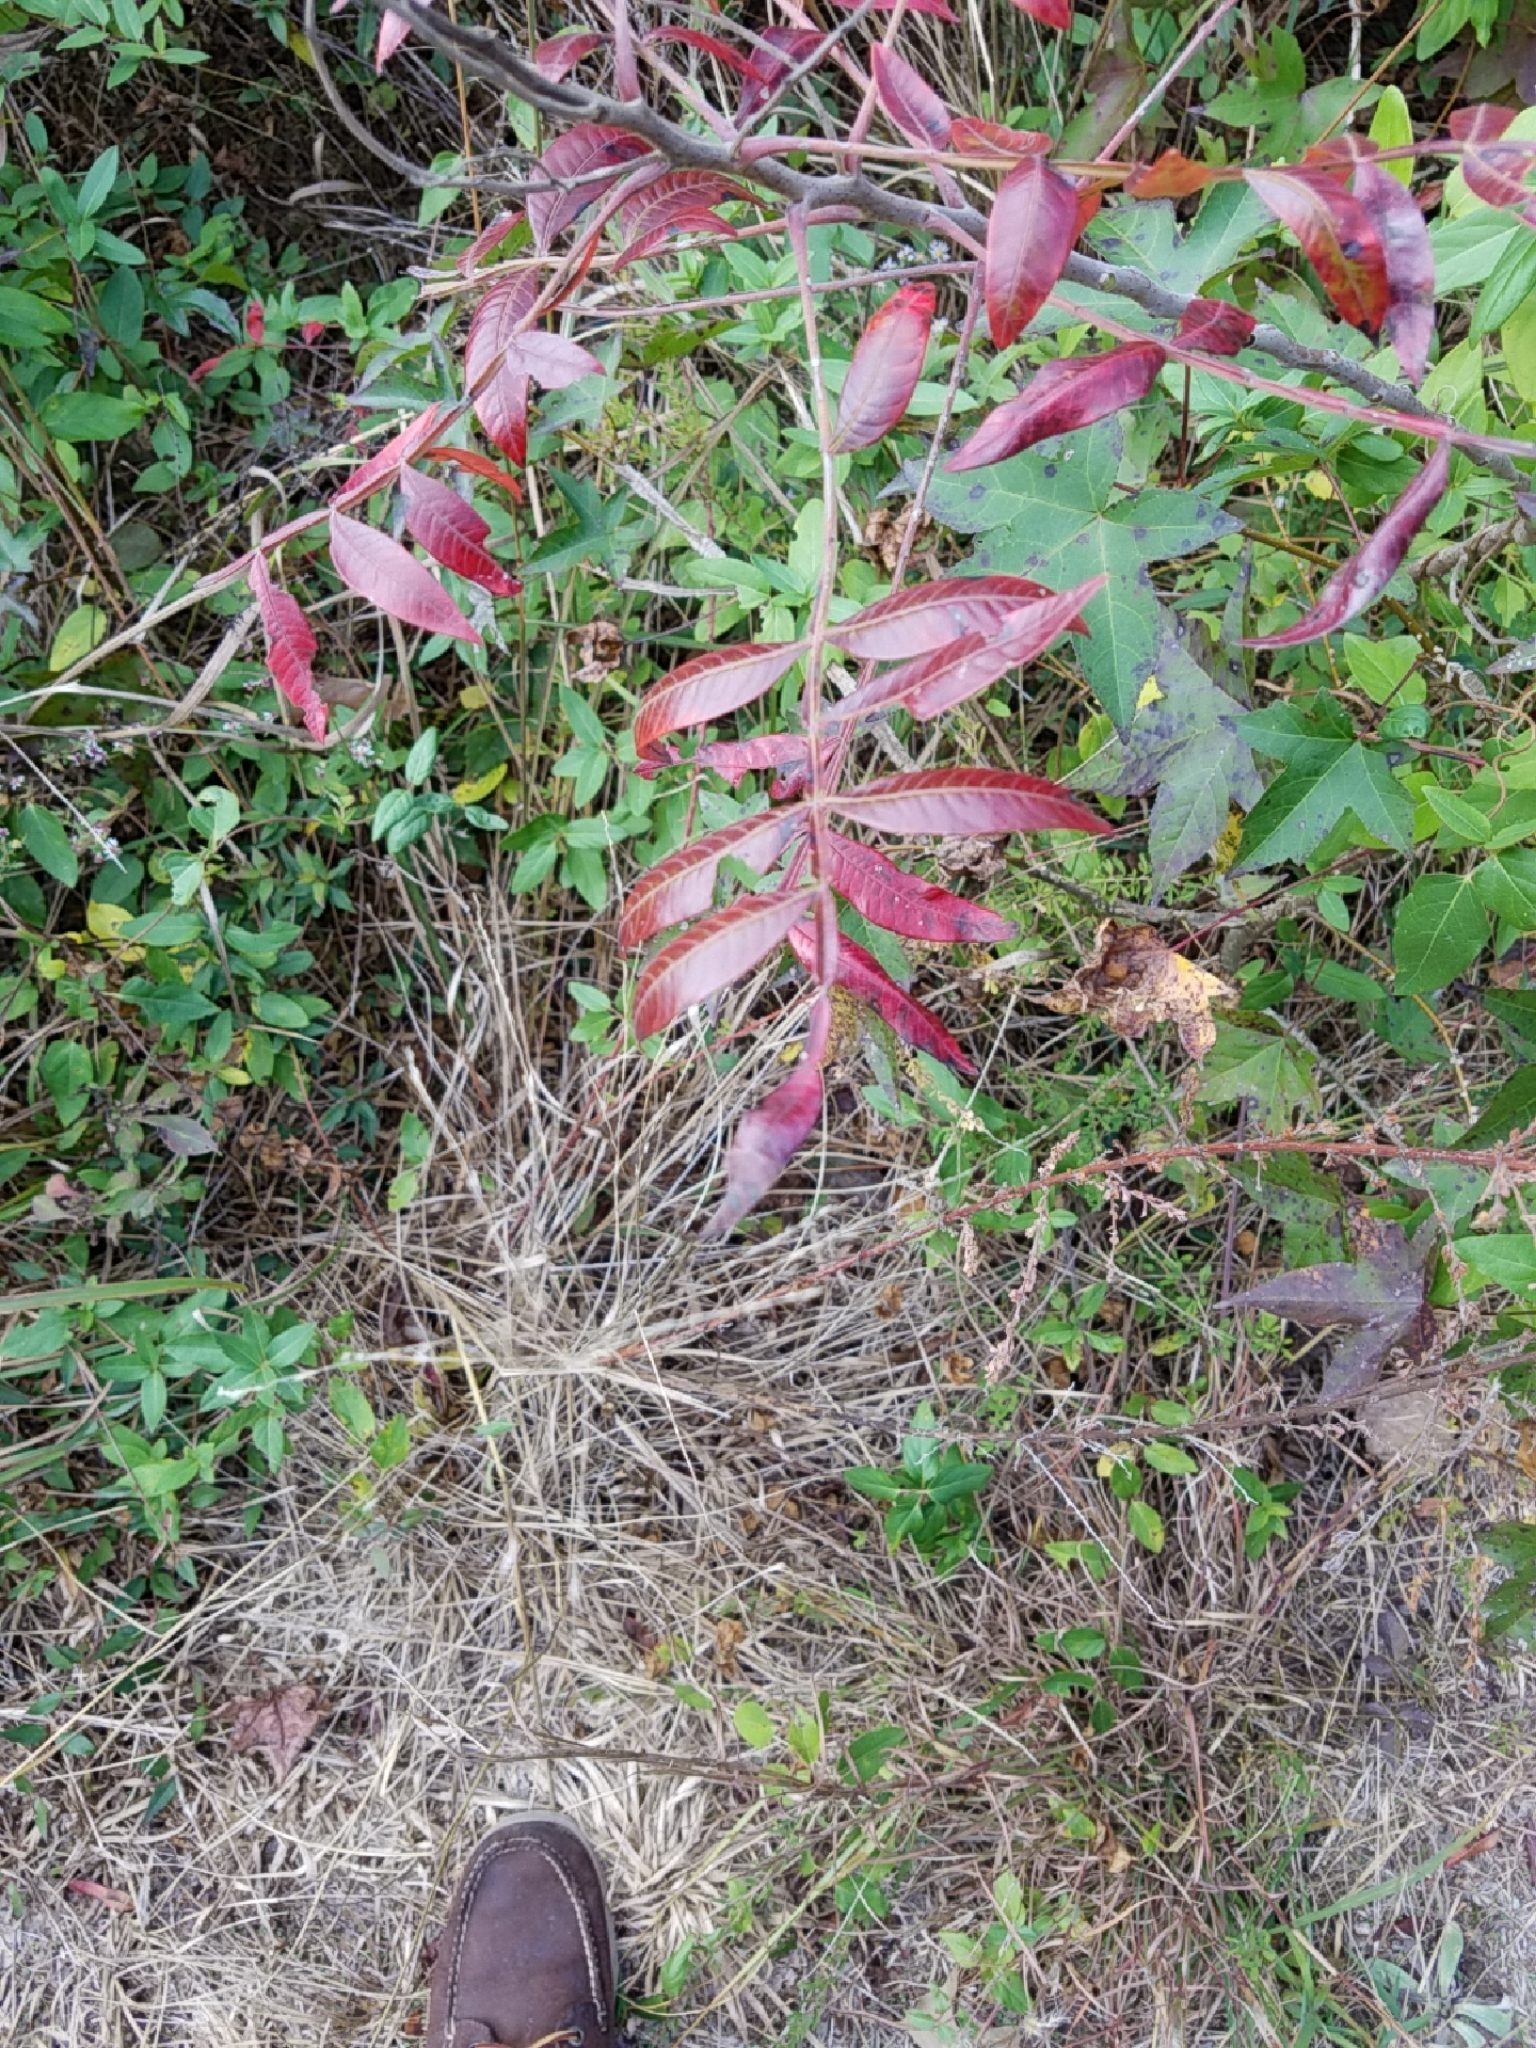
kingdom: Plantae
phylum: Tracheophyta
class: Magnoliopsida
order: Sapindales
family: Anacardiaceae
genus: Rhus
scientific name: Rhus copallina
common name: Shining sumac
